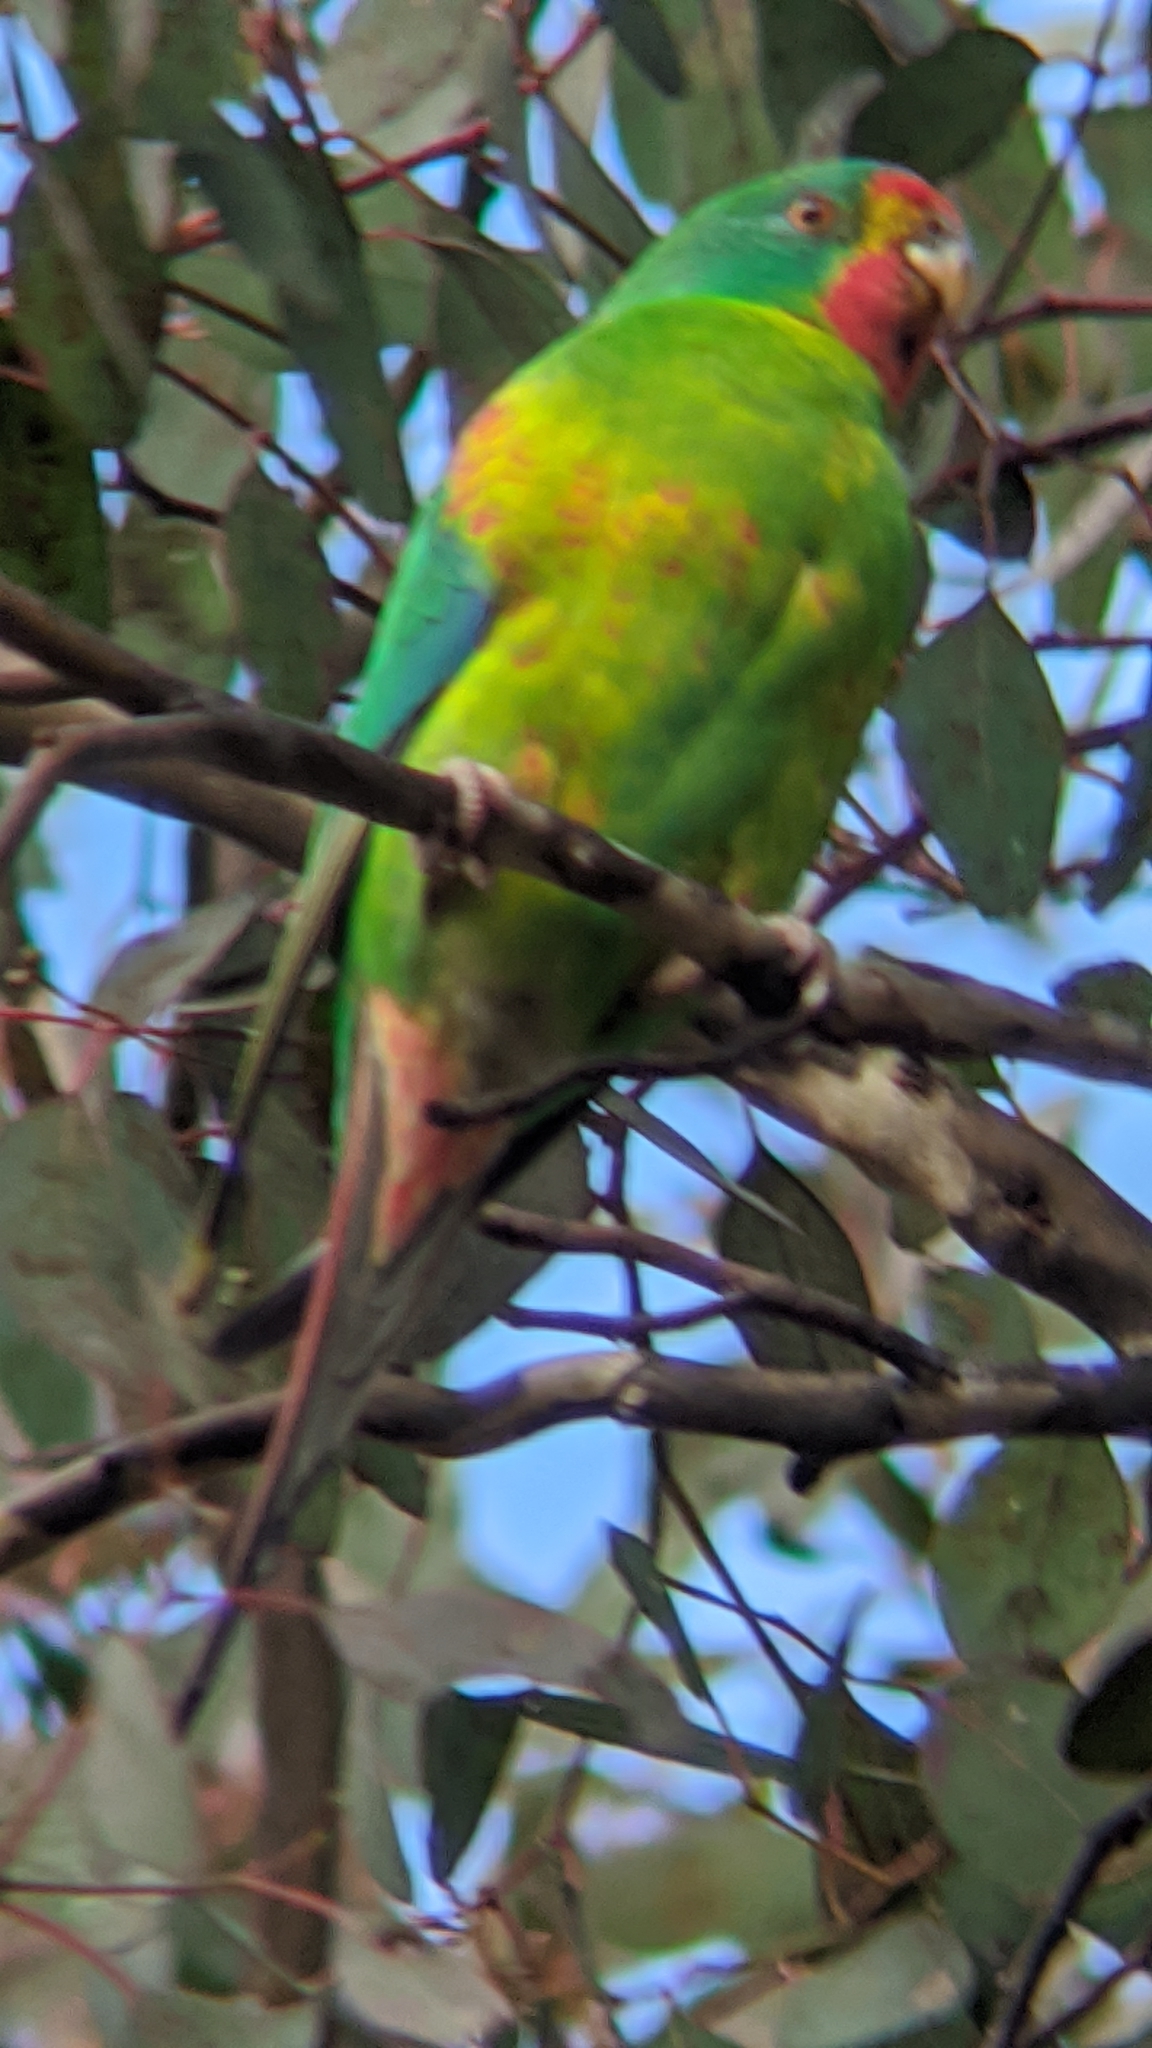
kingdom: Animalia
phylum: Chordata
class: Aves
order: Psittaciformes
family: Psittacidae
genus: Lathamus
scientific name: Lathamus discolor
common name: Swift parrot
